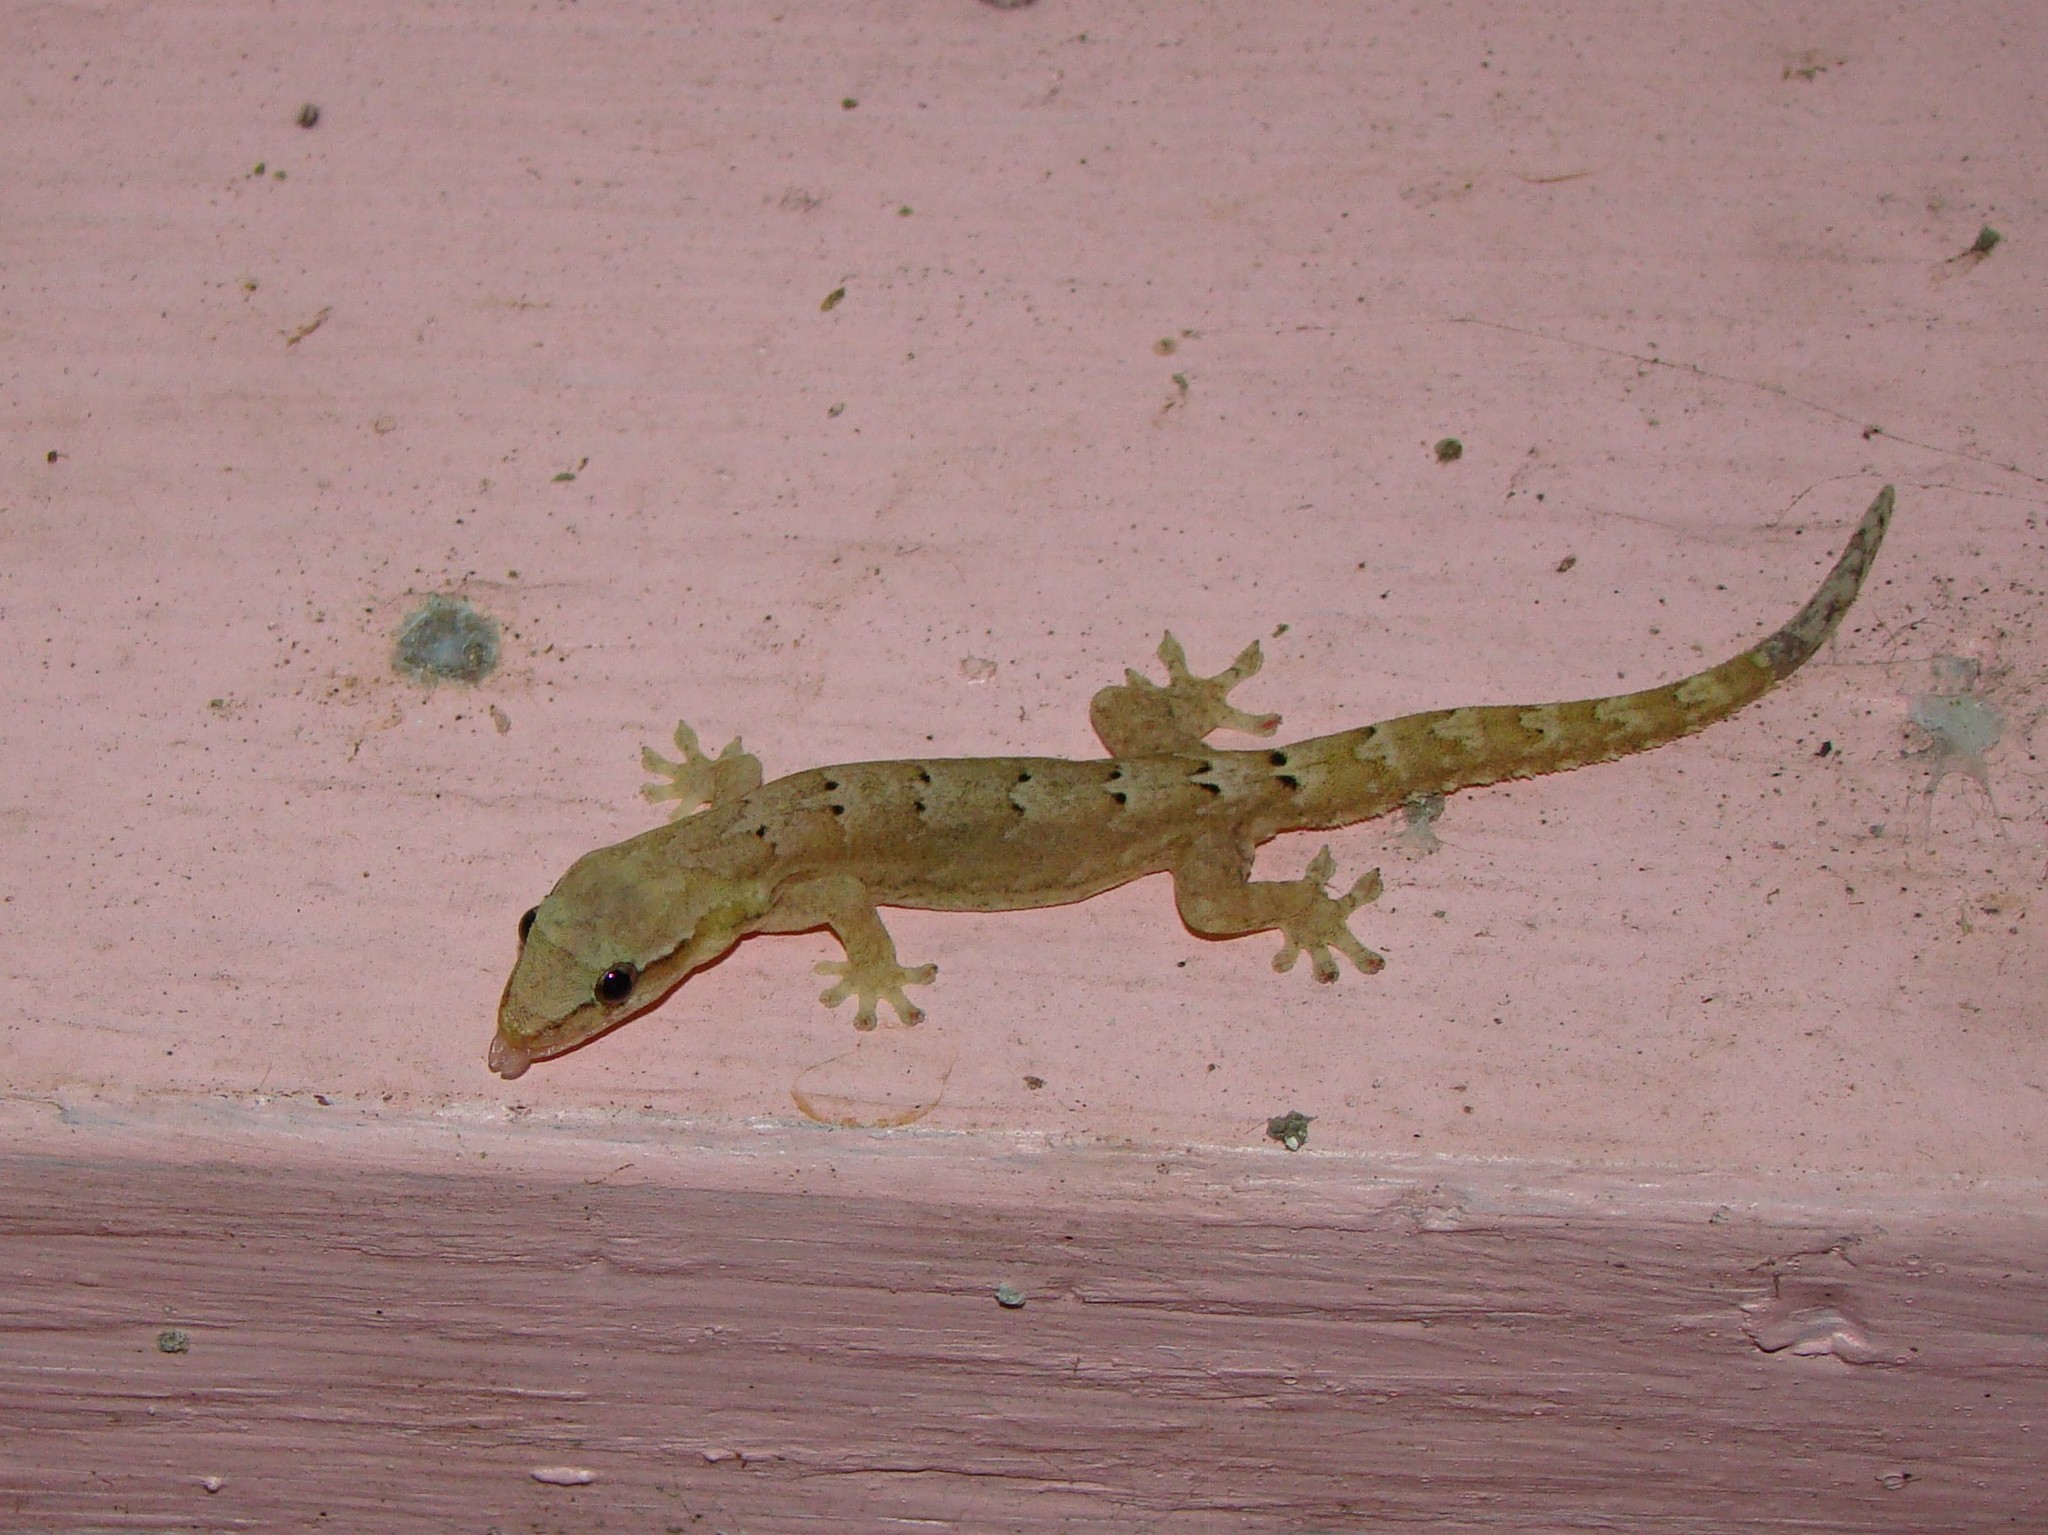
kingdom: Animalia
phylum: Chordata
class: Squamata
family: Gekkonidae
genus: Lepidodactylus
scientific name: Lepidodactylus lugubris
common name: Mourning gecko
